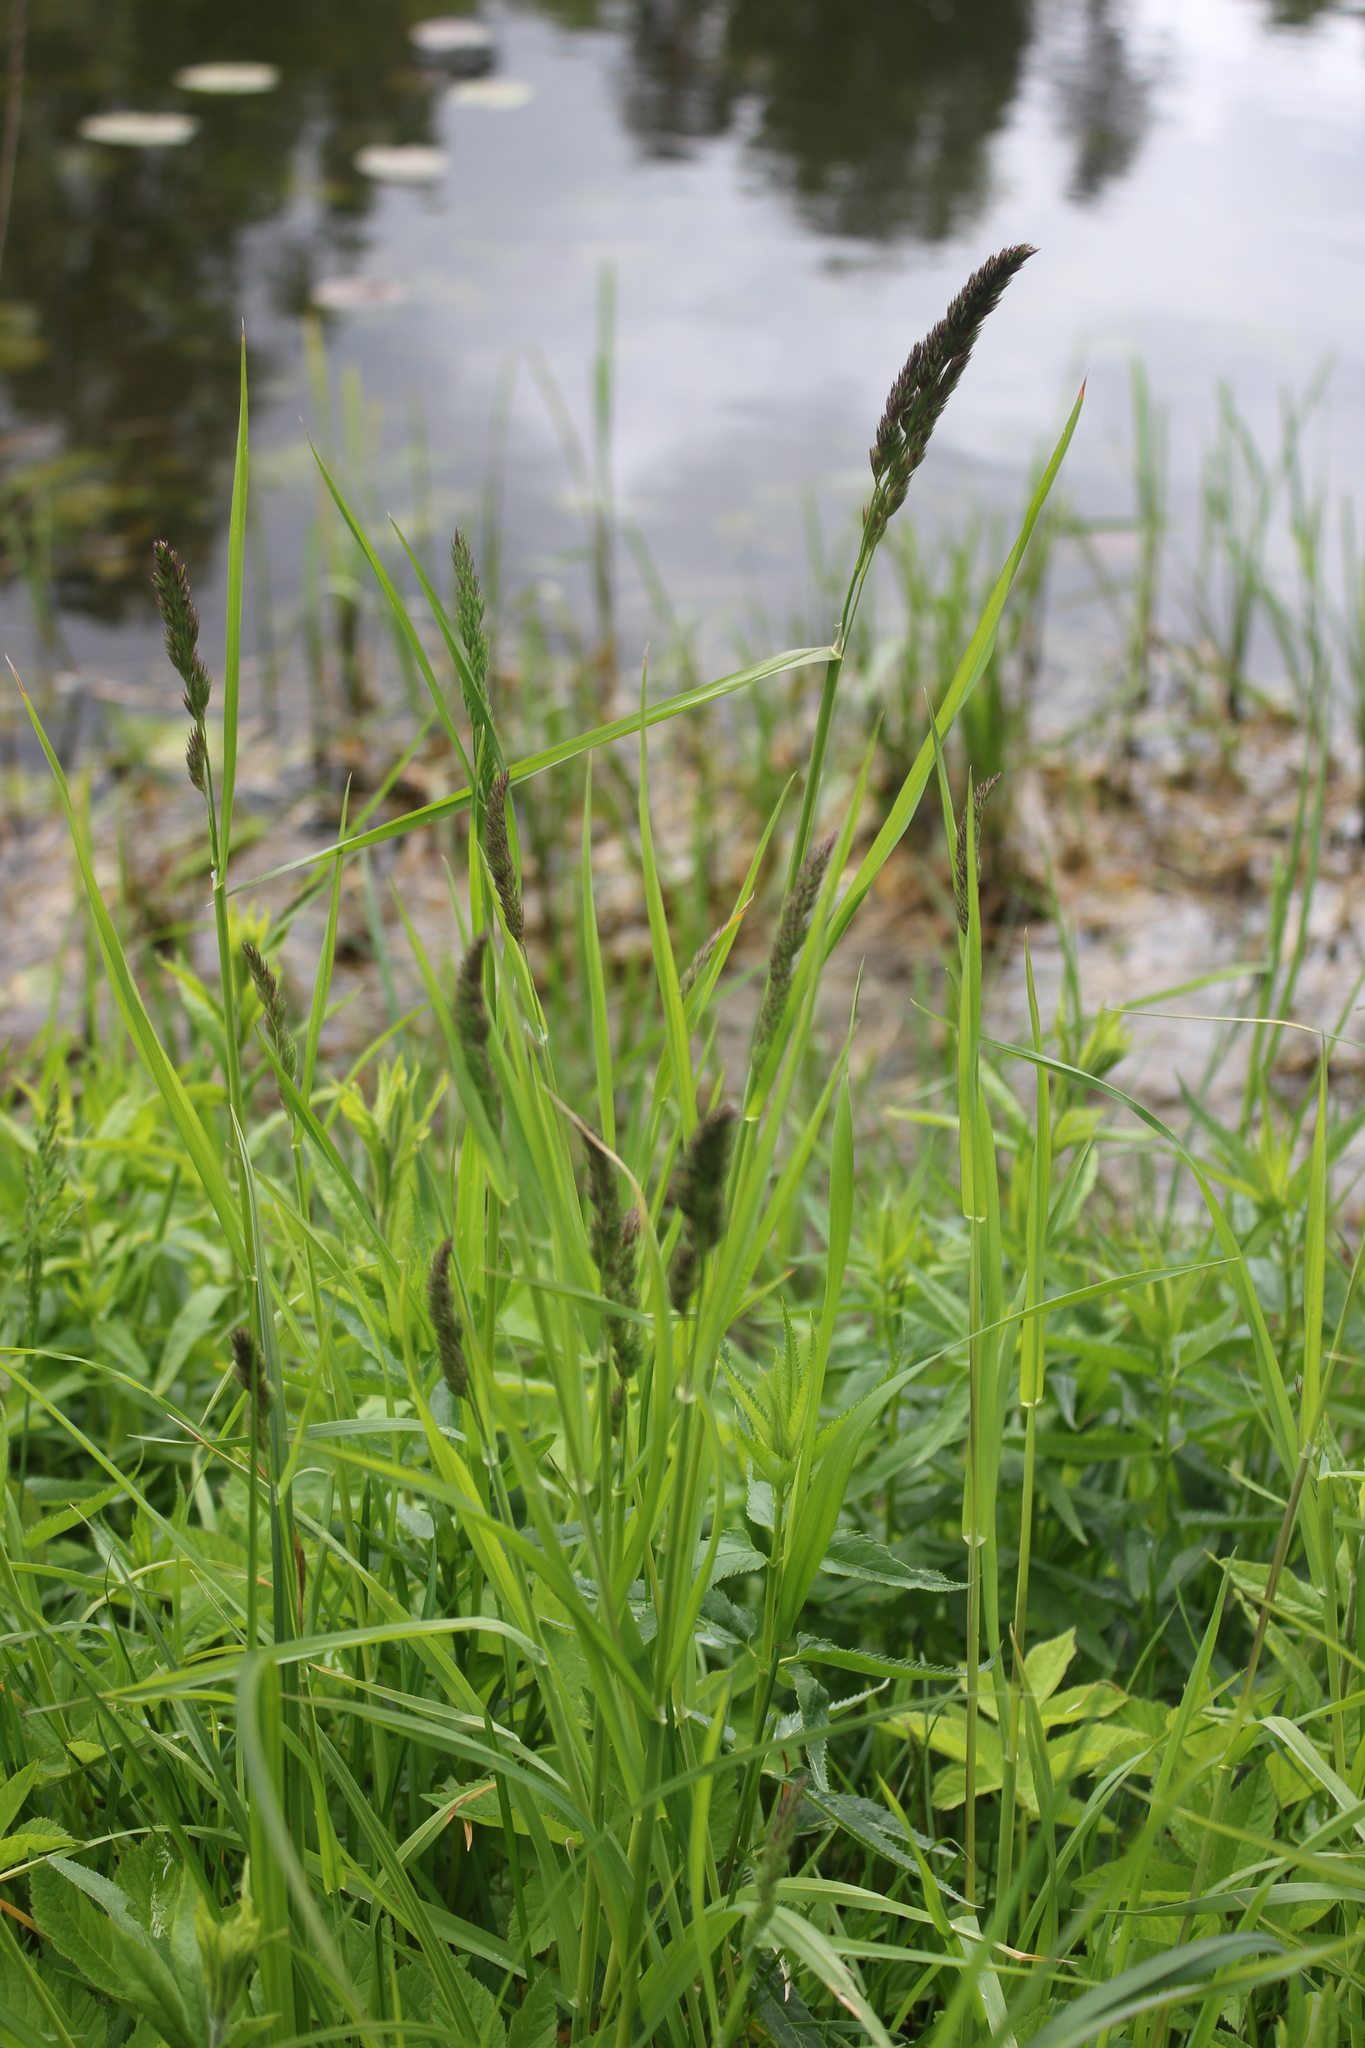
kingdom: Plantae
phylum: Tracheophyta
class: Liliopsida
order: Poales
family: Poaceae
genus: Dactylis
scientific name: Dactylis glomerata
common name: Orchardgrass
